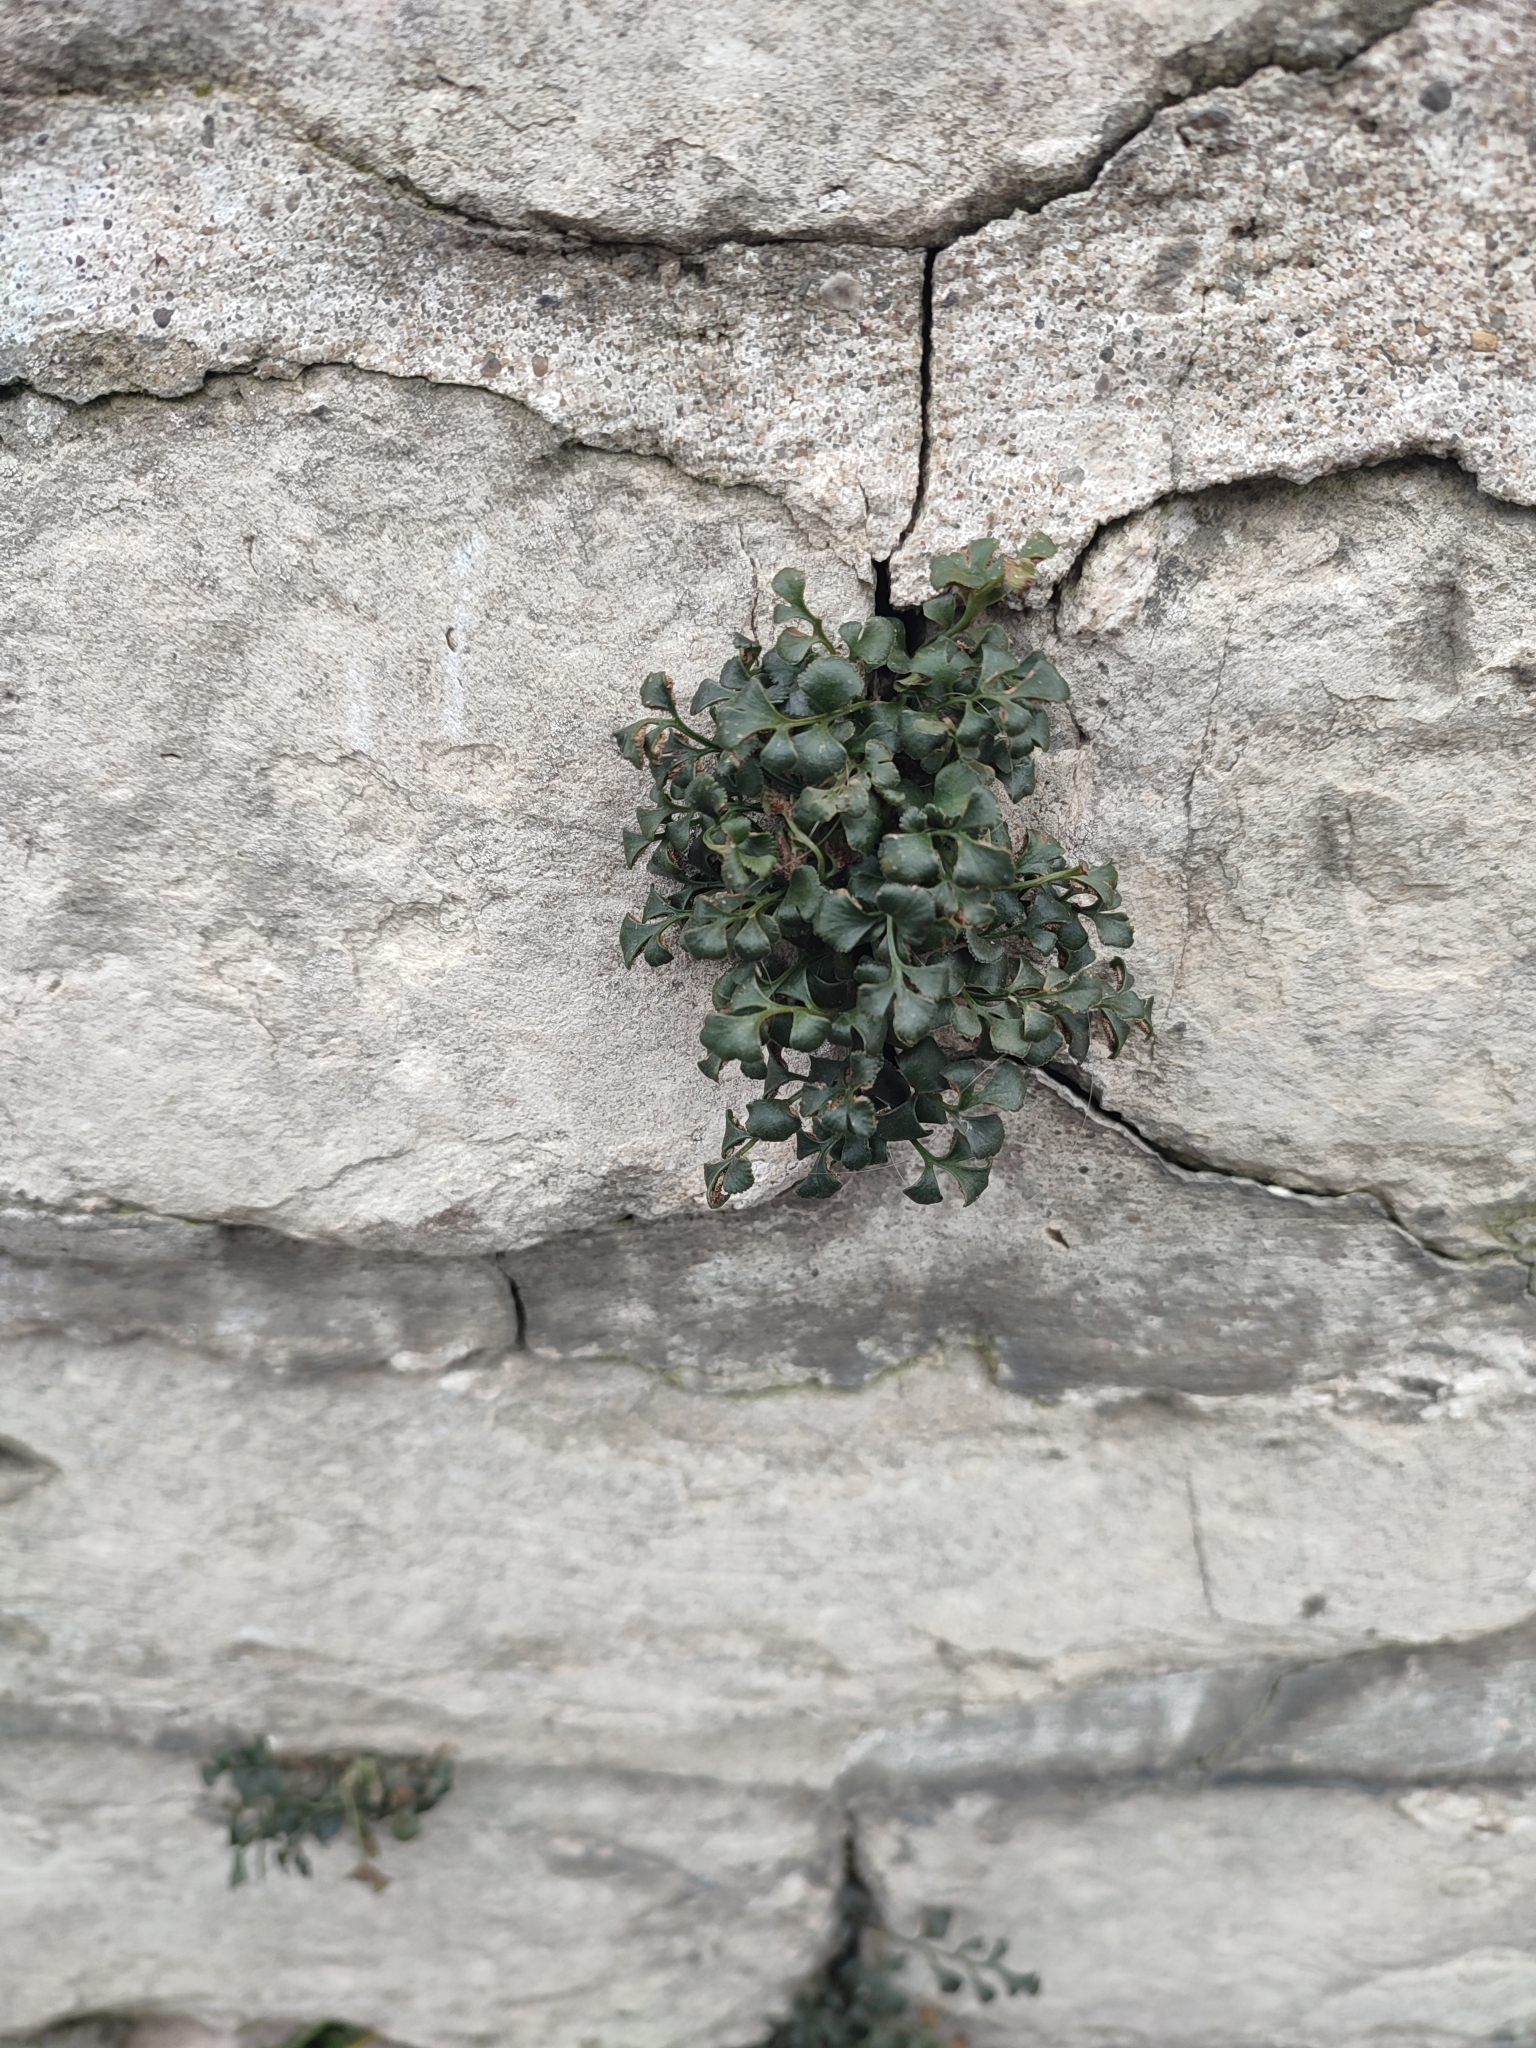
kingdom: Plantae
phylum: Tracheophyta
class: Polypodiopsida
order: Polypodiales
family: Aspleniaceae
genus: Asplenium
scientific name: Asplenium ruta-muraria
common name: Wall-rue
